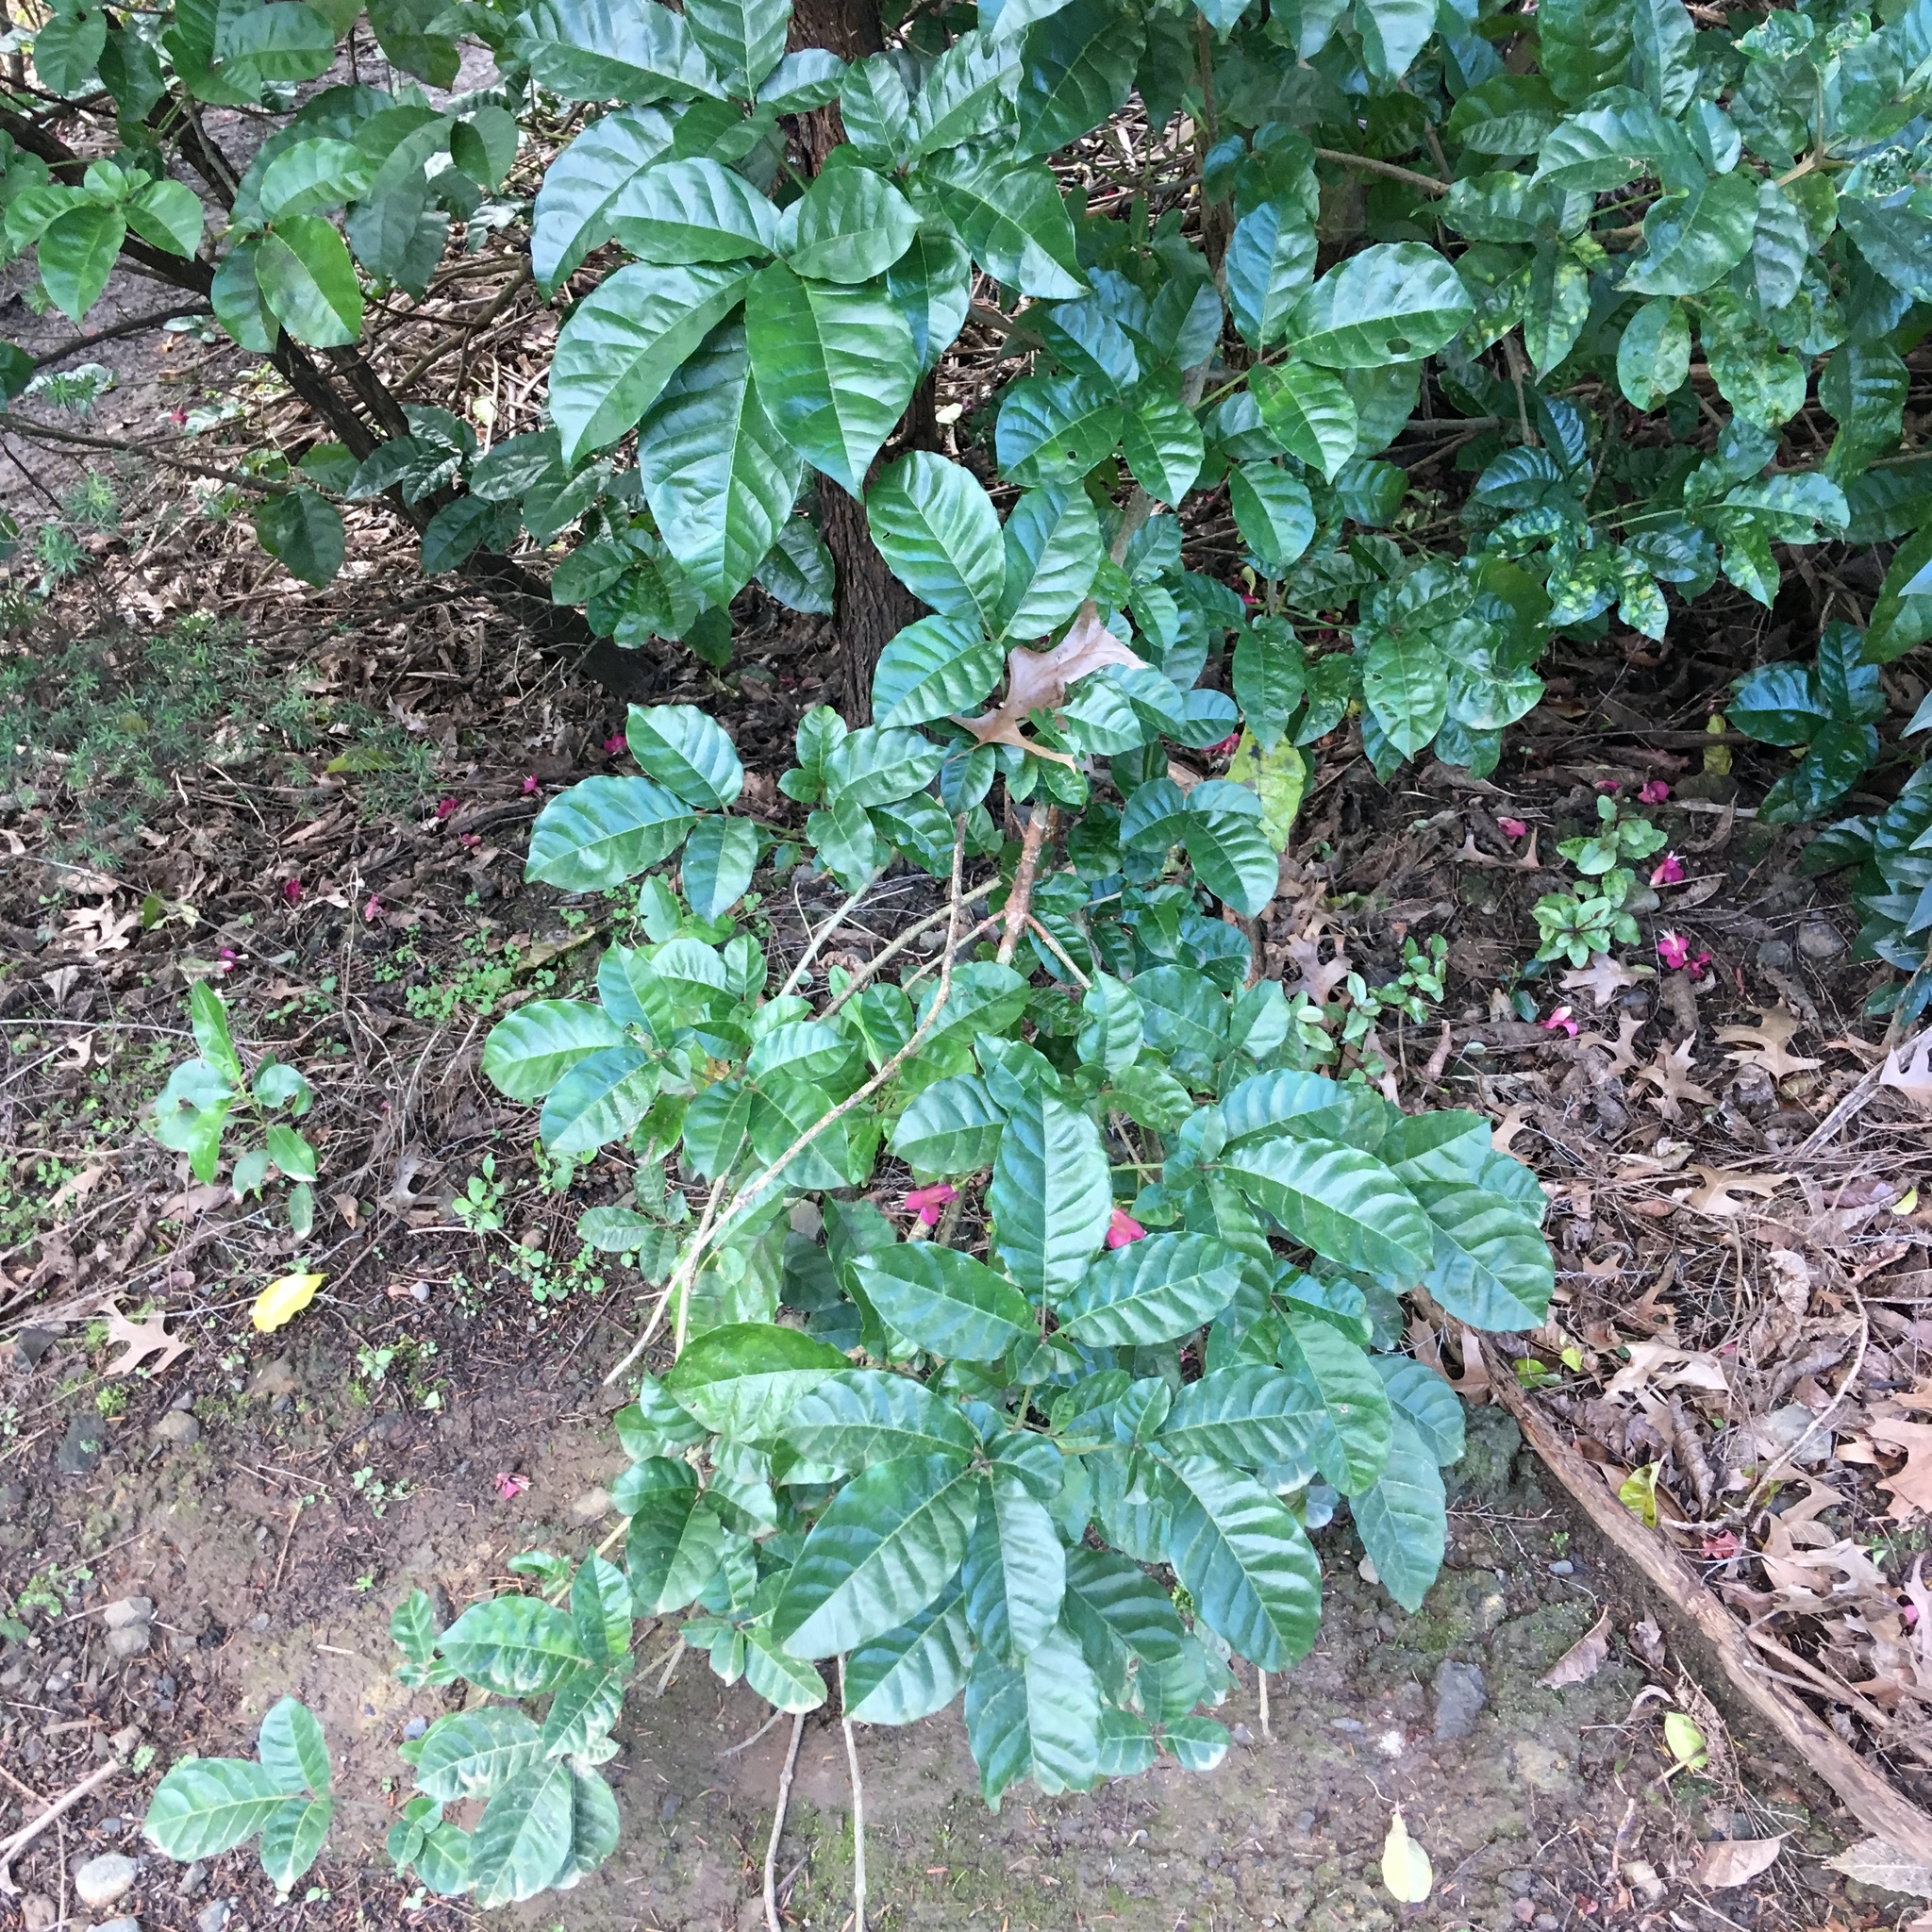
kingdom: Plantae
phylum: Tracheophyta
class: Magnoliopsida
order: Lamiales
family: Lamiaceae
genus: Vitex
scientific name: Vitex lucens
